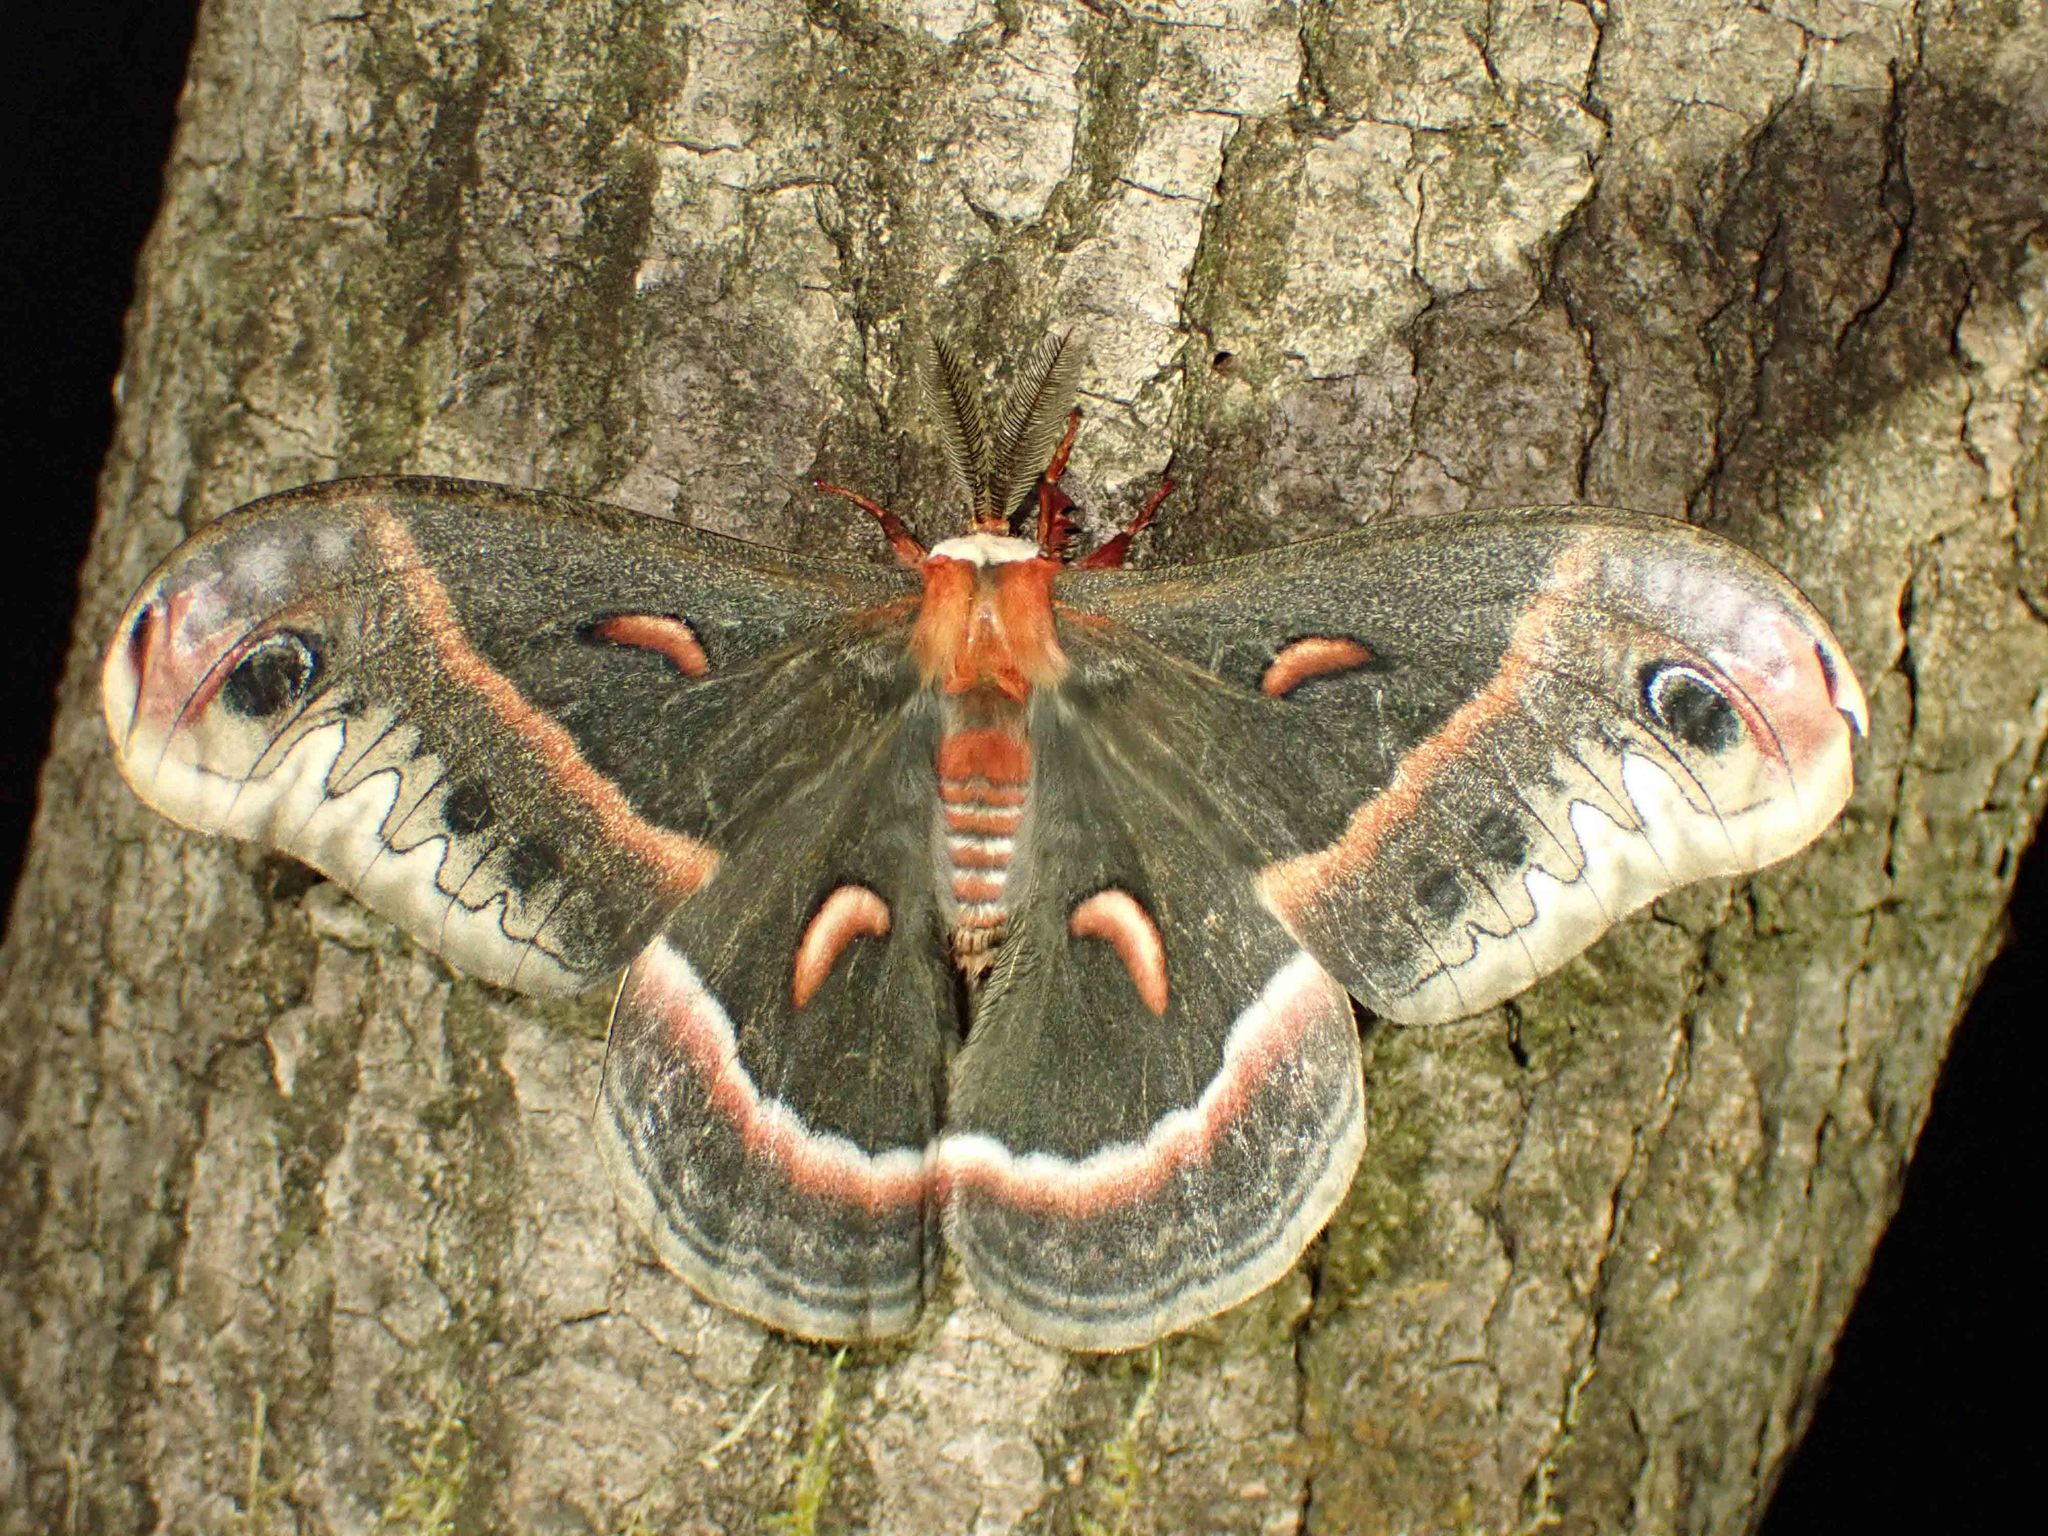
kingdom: Animalia
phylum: Arthropoda
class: Insecta
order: Lepidoptera
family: Saturniidae
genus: Hyalophora
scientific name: Hyalophora cecropia
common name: Cecropia silkmoth
